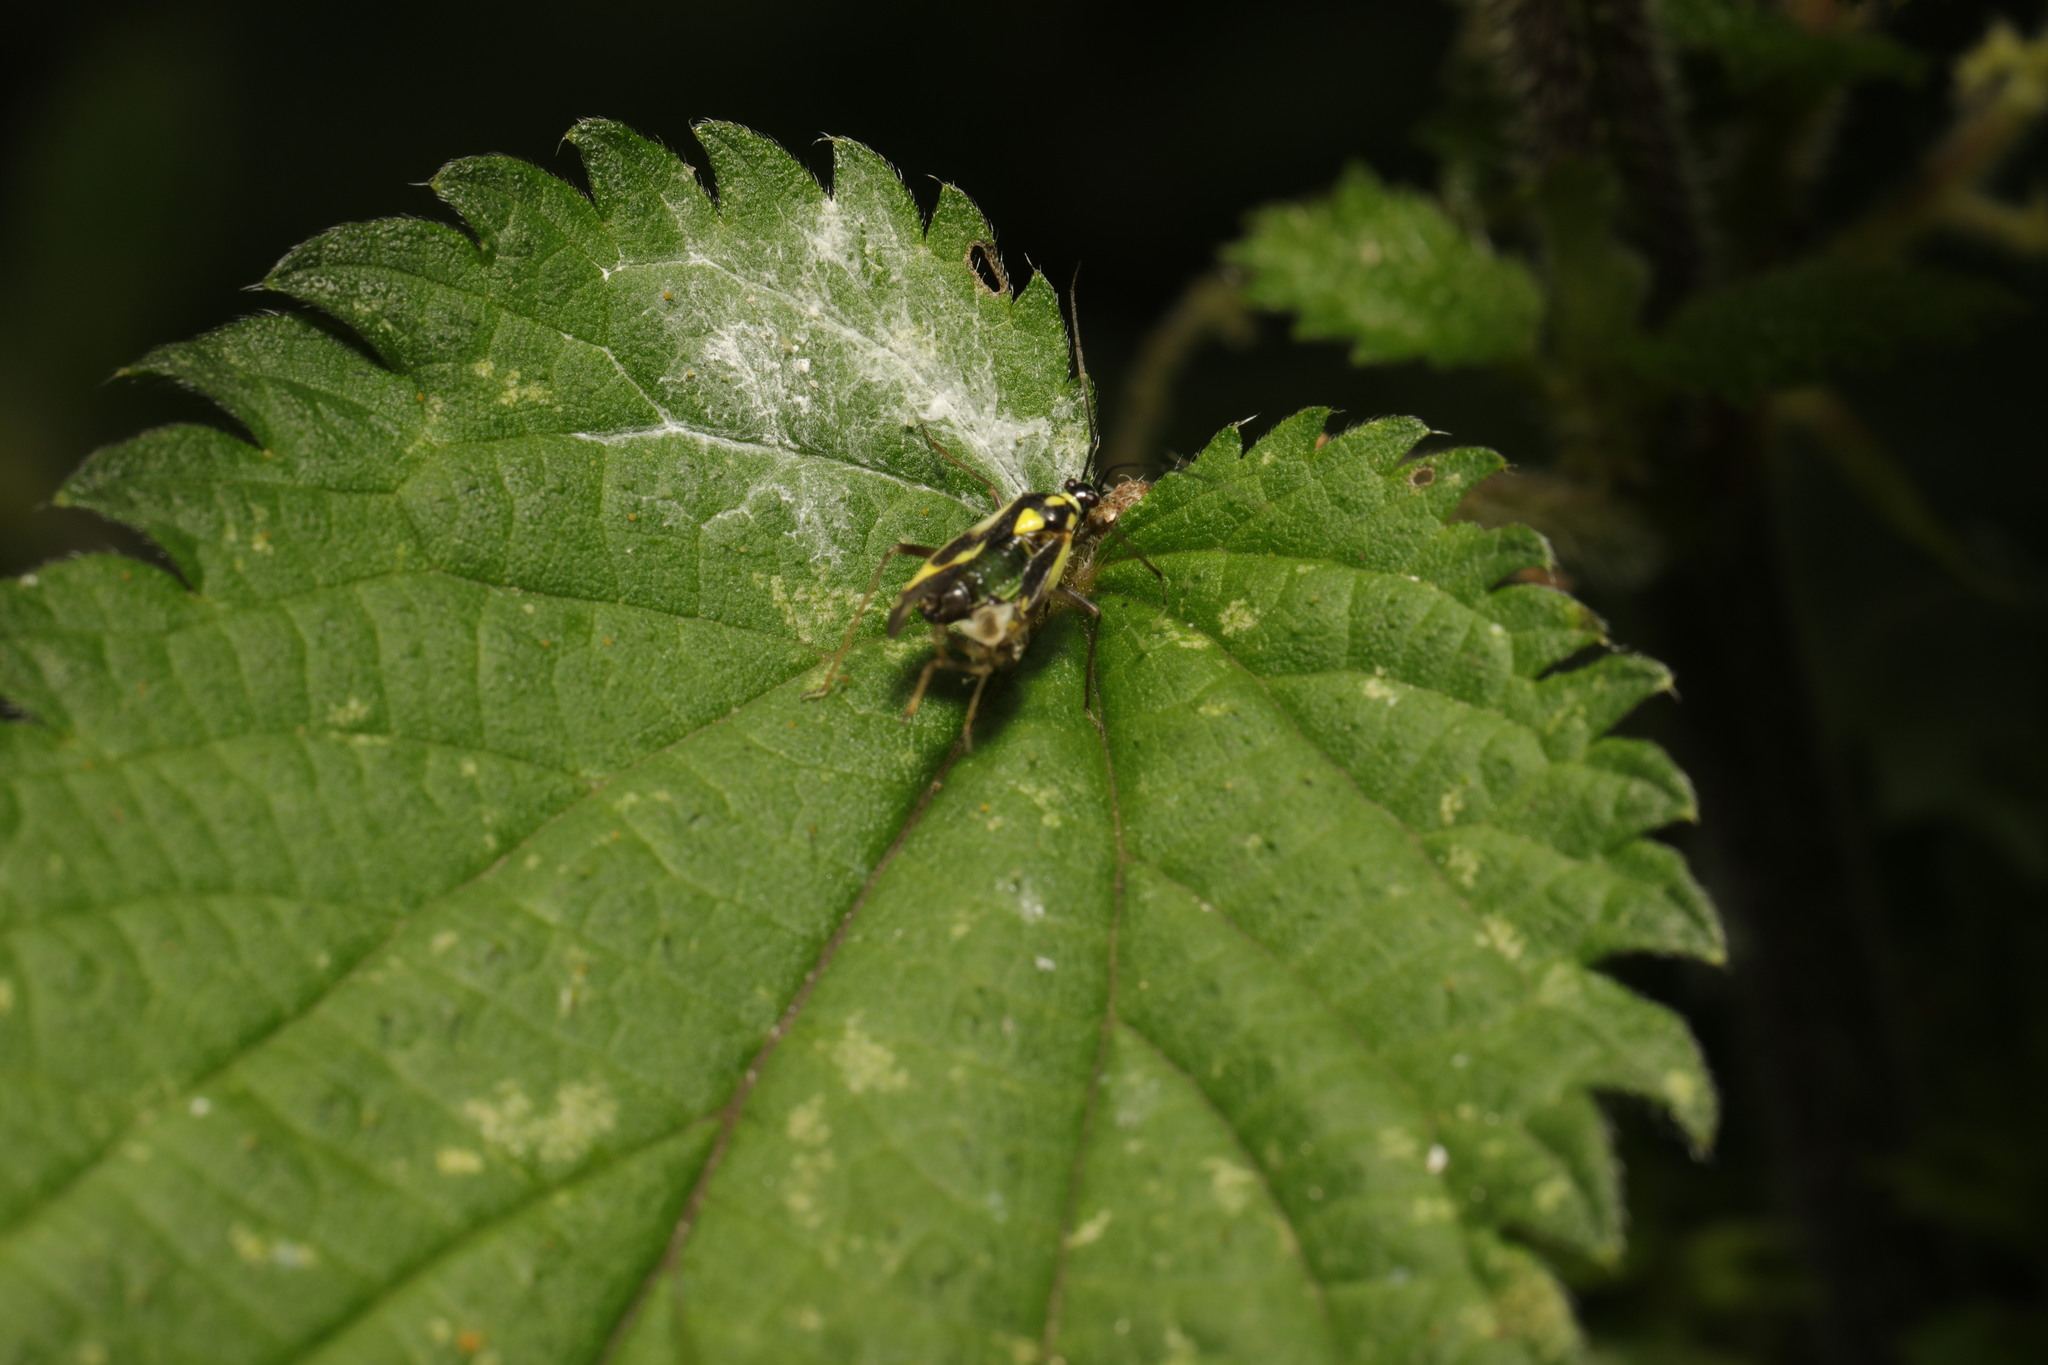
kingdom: Animalia
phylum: Arthropoda
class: Insecta
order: Hemiptera
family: Miridae
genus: Grypocoris
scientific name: Grypocoris stysi
